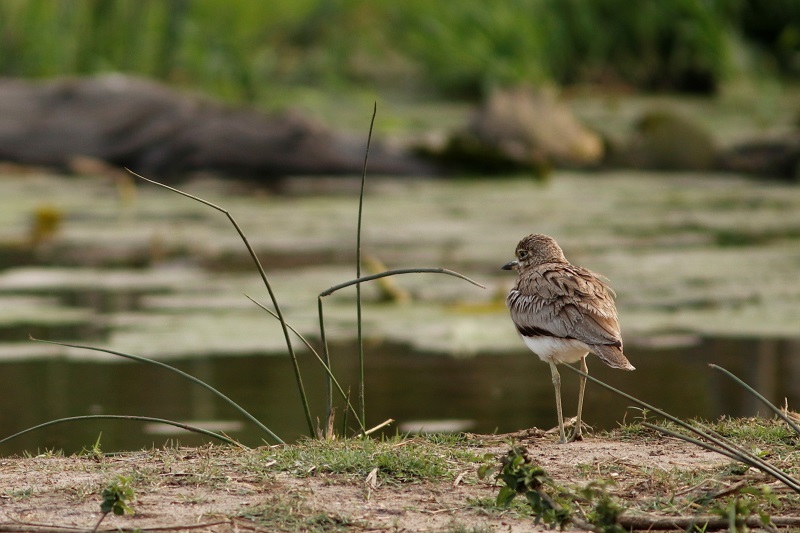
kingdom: Animalia
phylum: Chordata
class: Aves
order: Charadriiformes
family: Burhinidae
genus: Burhinus
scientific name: Burhinus vermiculatus
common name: Water thick-knee
